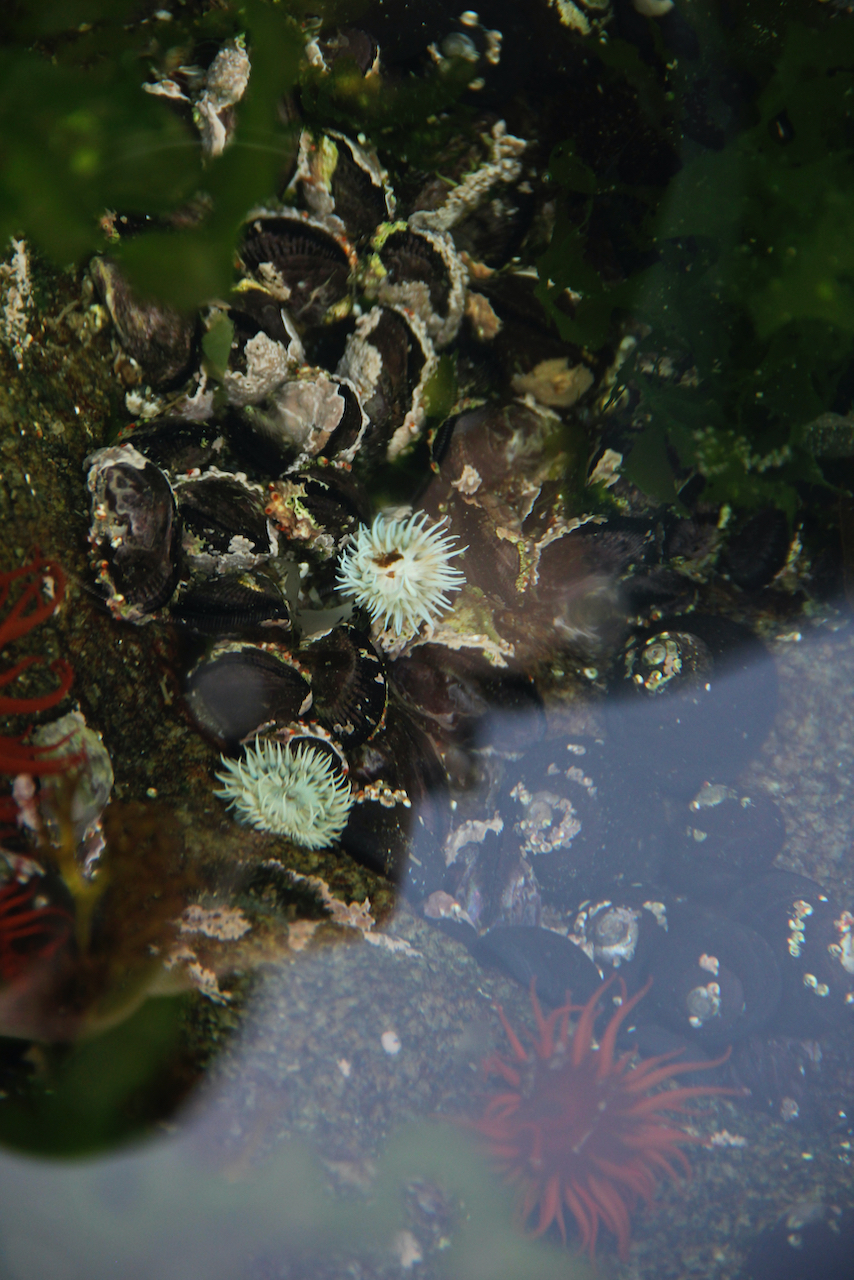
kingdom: Animalia
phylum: Cnidaria
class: Anthozoa
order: Actiniaria
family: Sagartiidae
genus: Anthothoe
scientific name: Anthothoe chilensis
